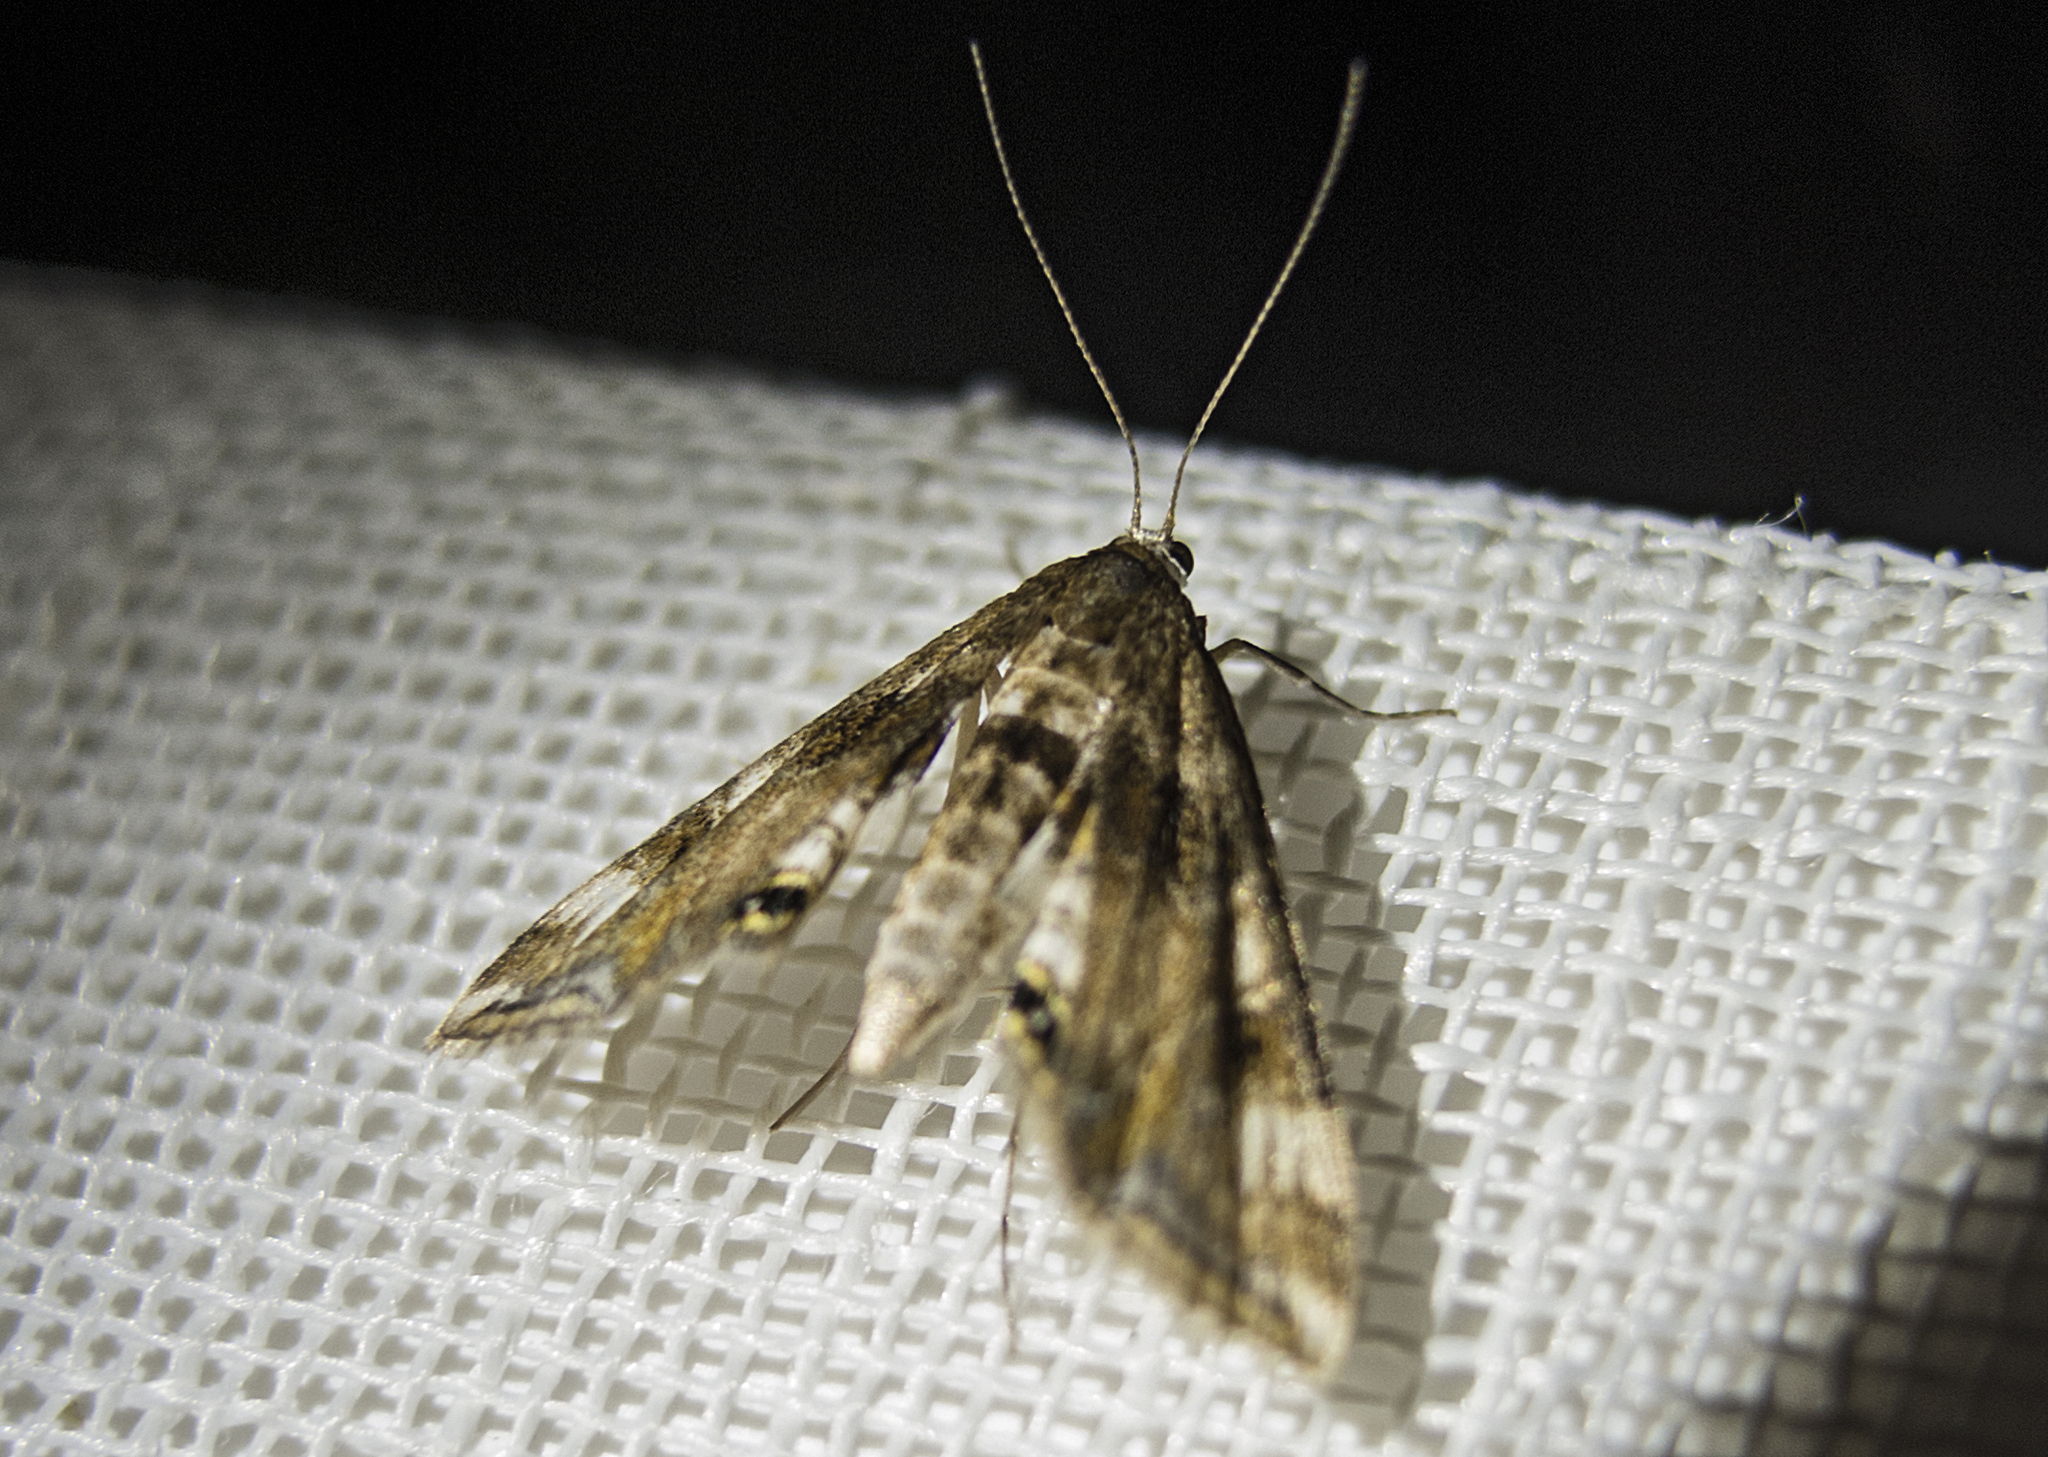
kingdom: Animalia
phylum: Arthropoda
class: Insecta
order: Lepidoptera
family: Crambidae
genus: Cataclysta
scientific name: Cataclysta lemnata
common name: Small china-mark
